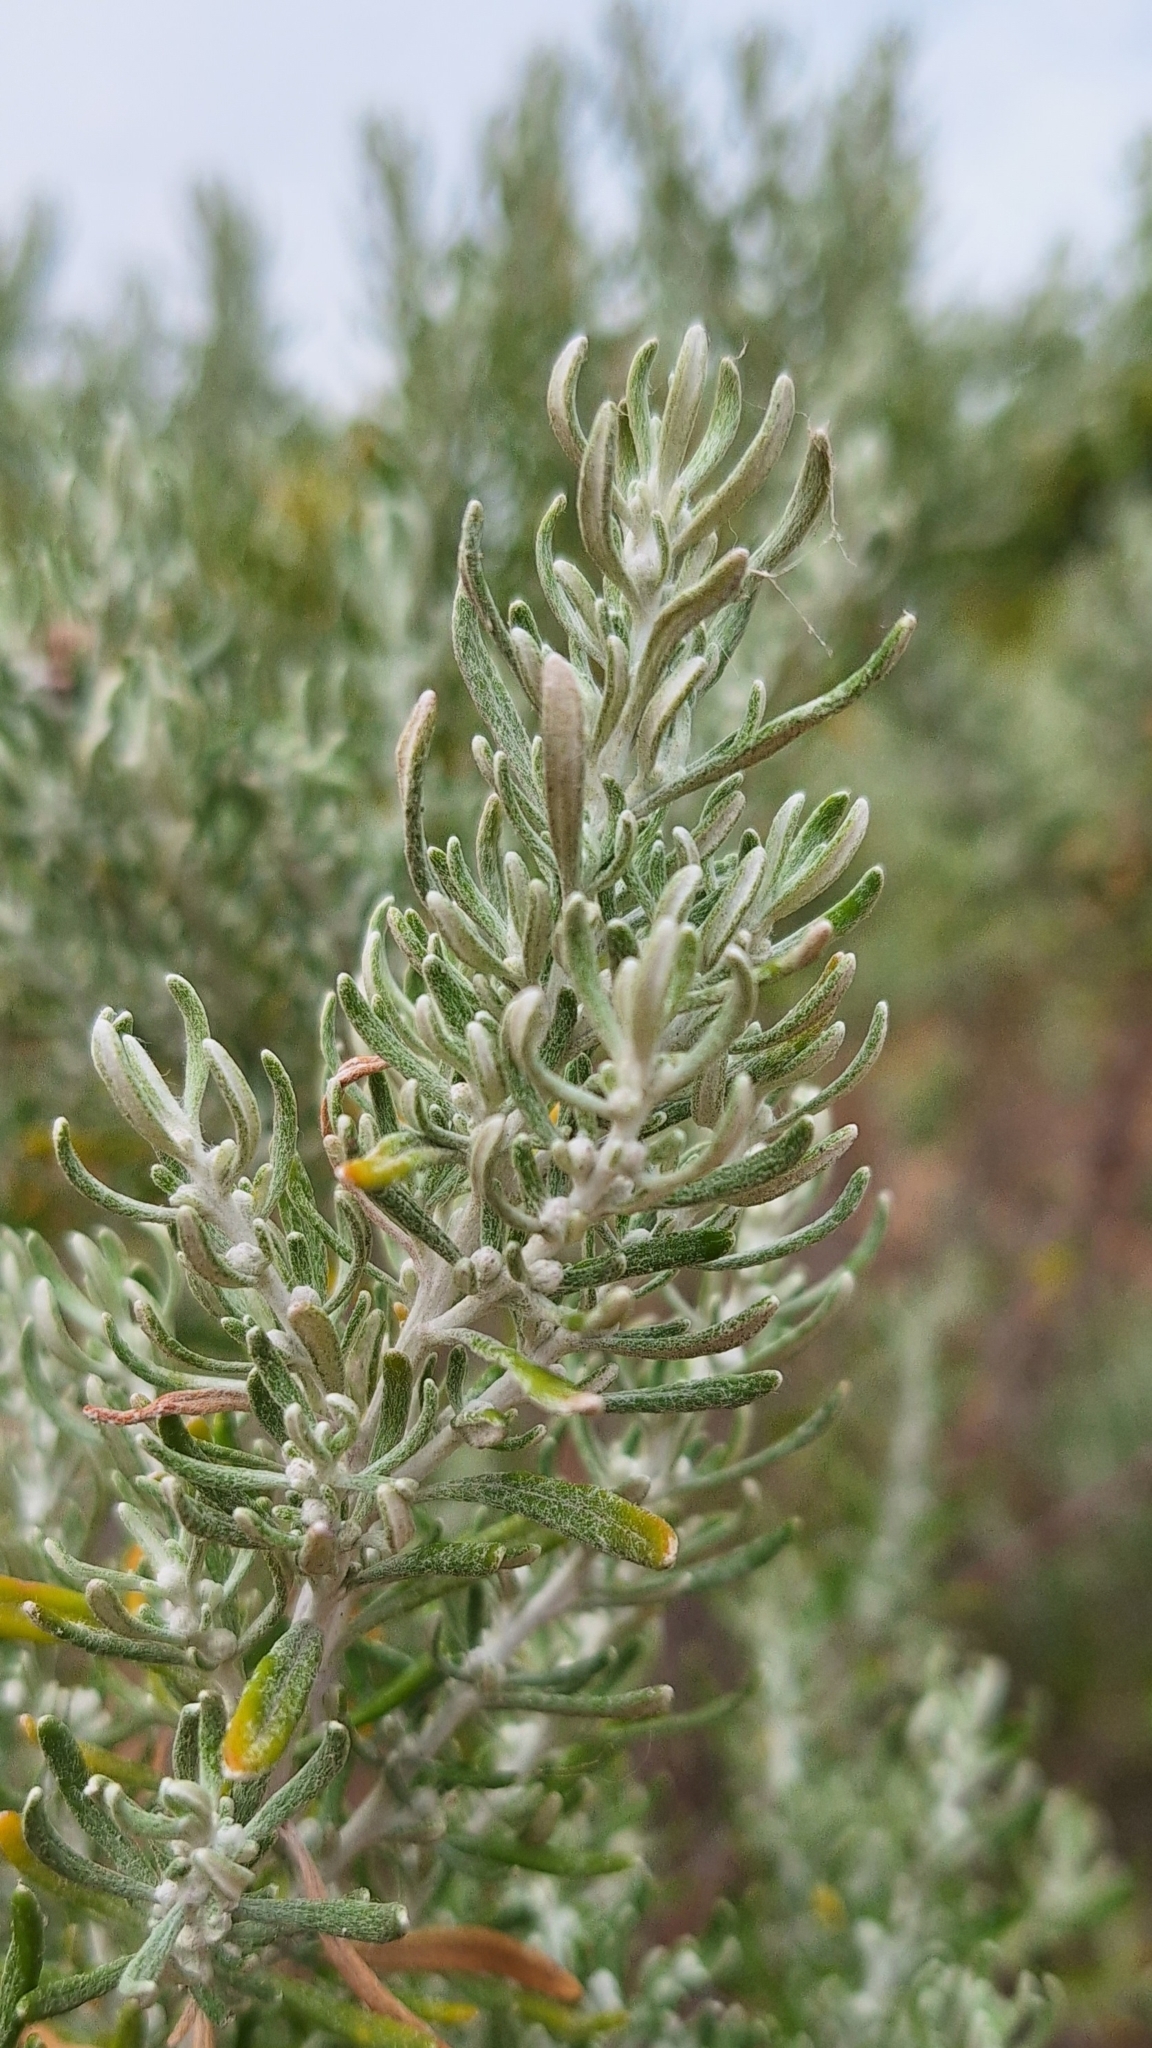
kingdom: Plantae
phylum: Tracheophyta
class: Magnoliopsida
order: Asterales
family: Asteraceae
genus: Olearia
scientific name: Olearia axillaris
